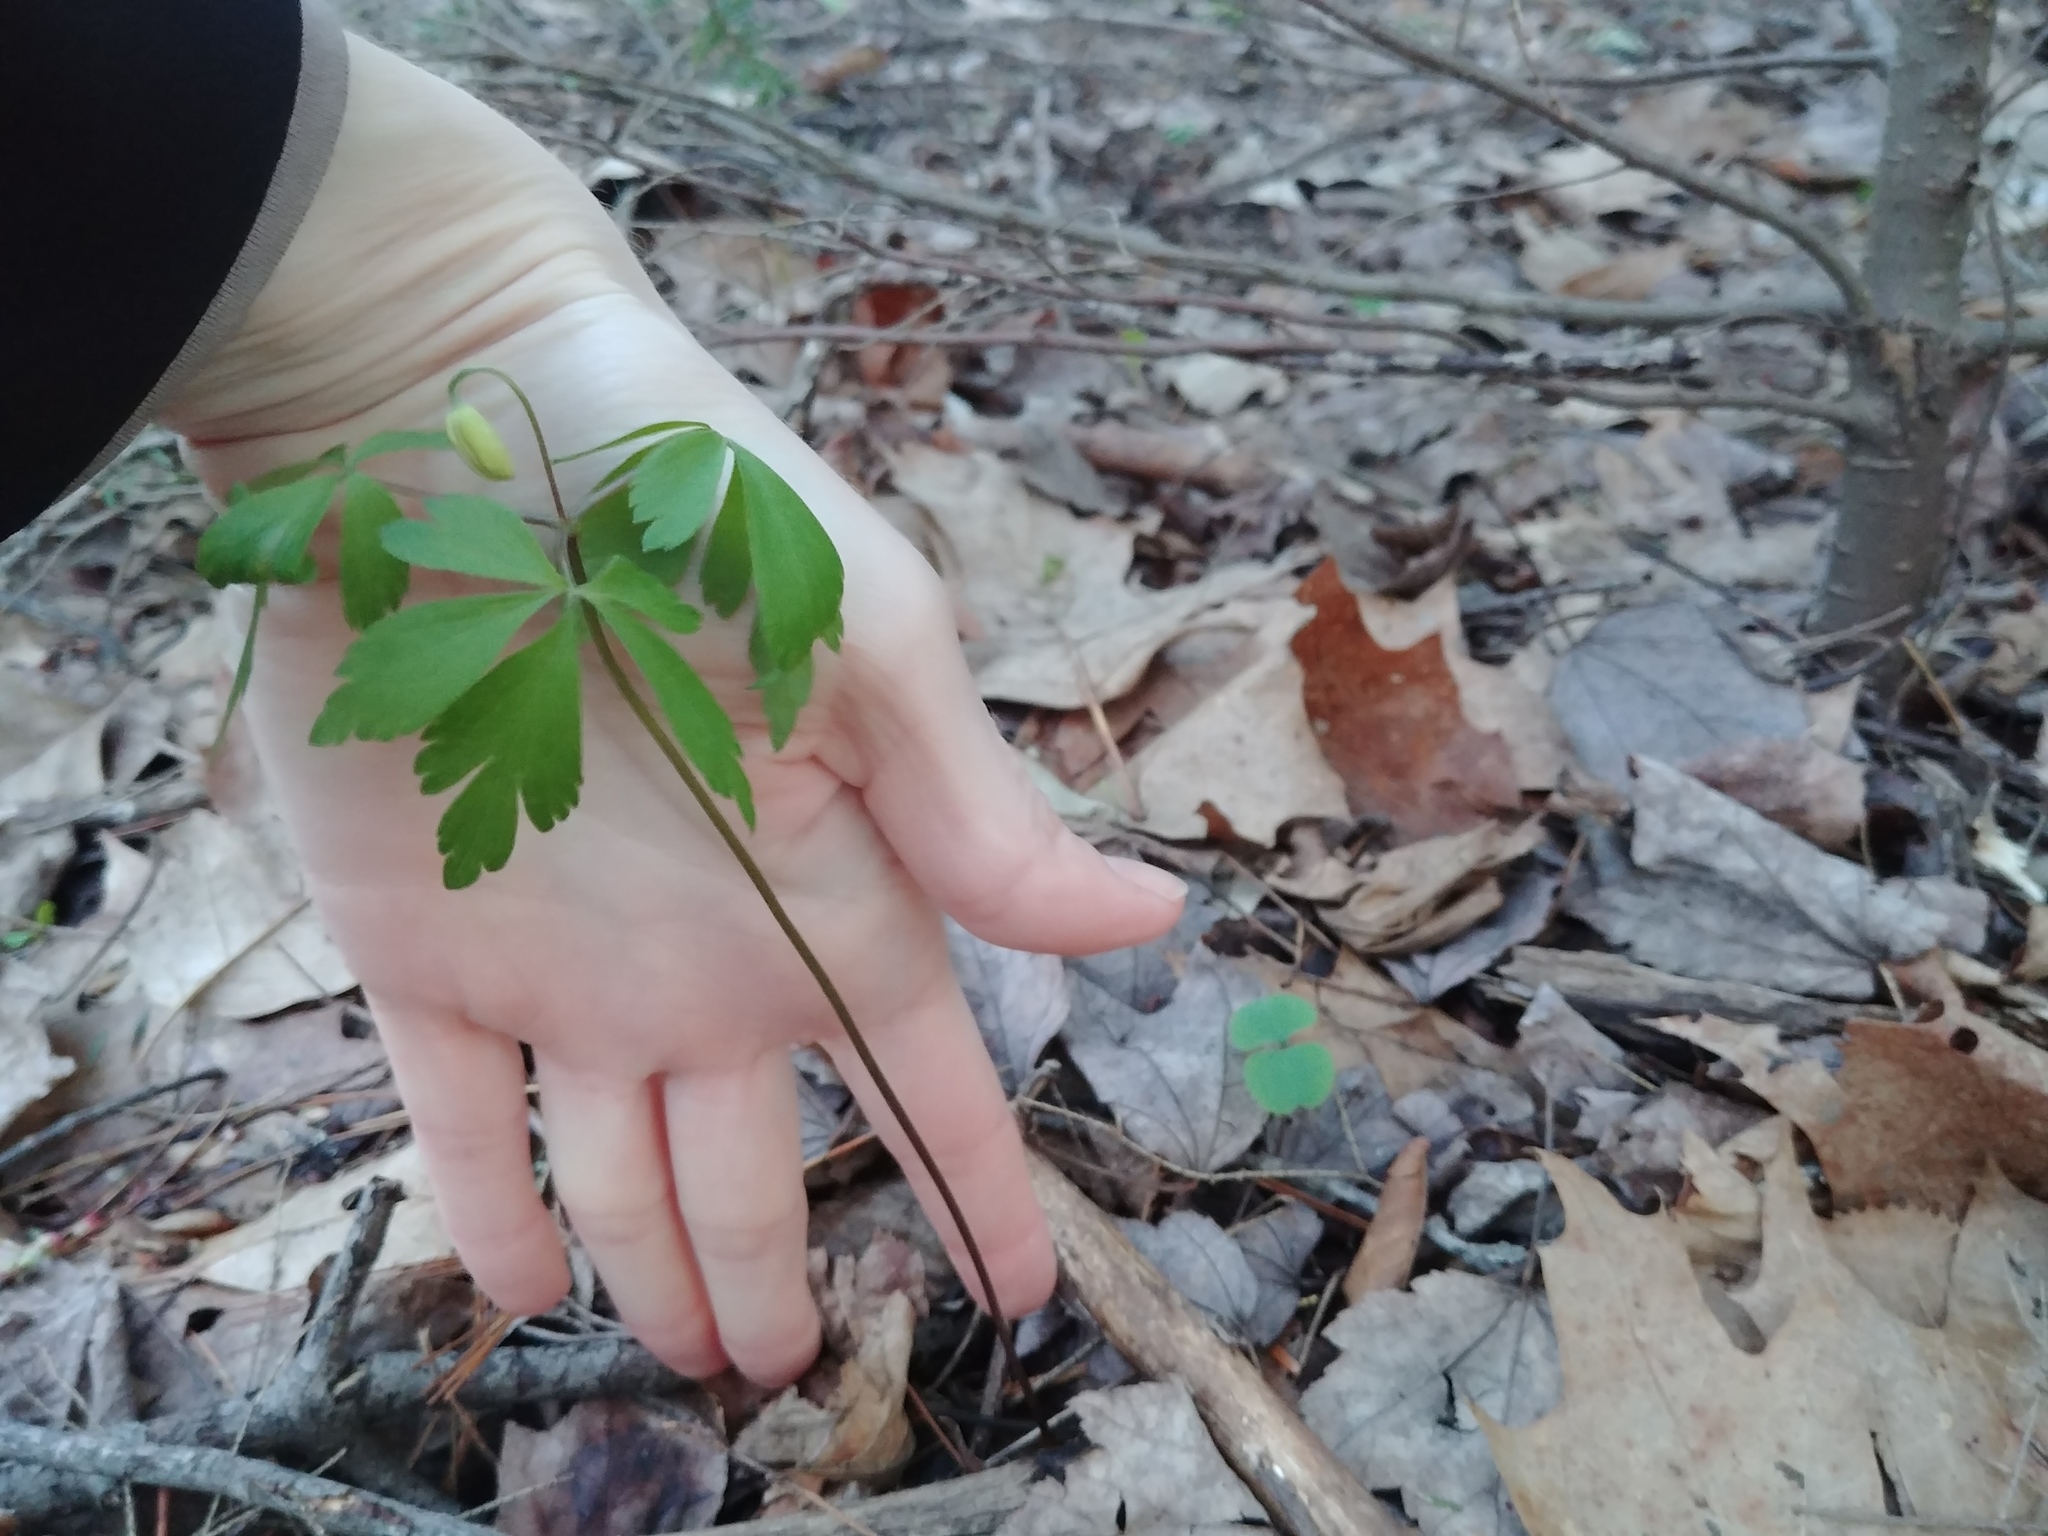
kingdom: Plantae
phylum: Tracheophyta
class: Magnoliopsida
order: Ranunculales
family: Ranunculaceae
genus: Anemone
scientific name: Anemone quinquefolia
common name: Wood anemone
